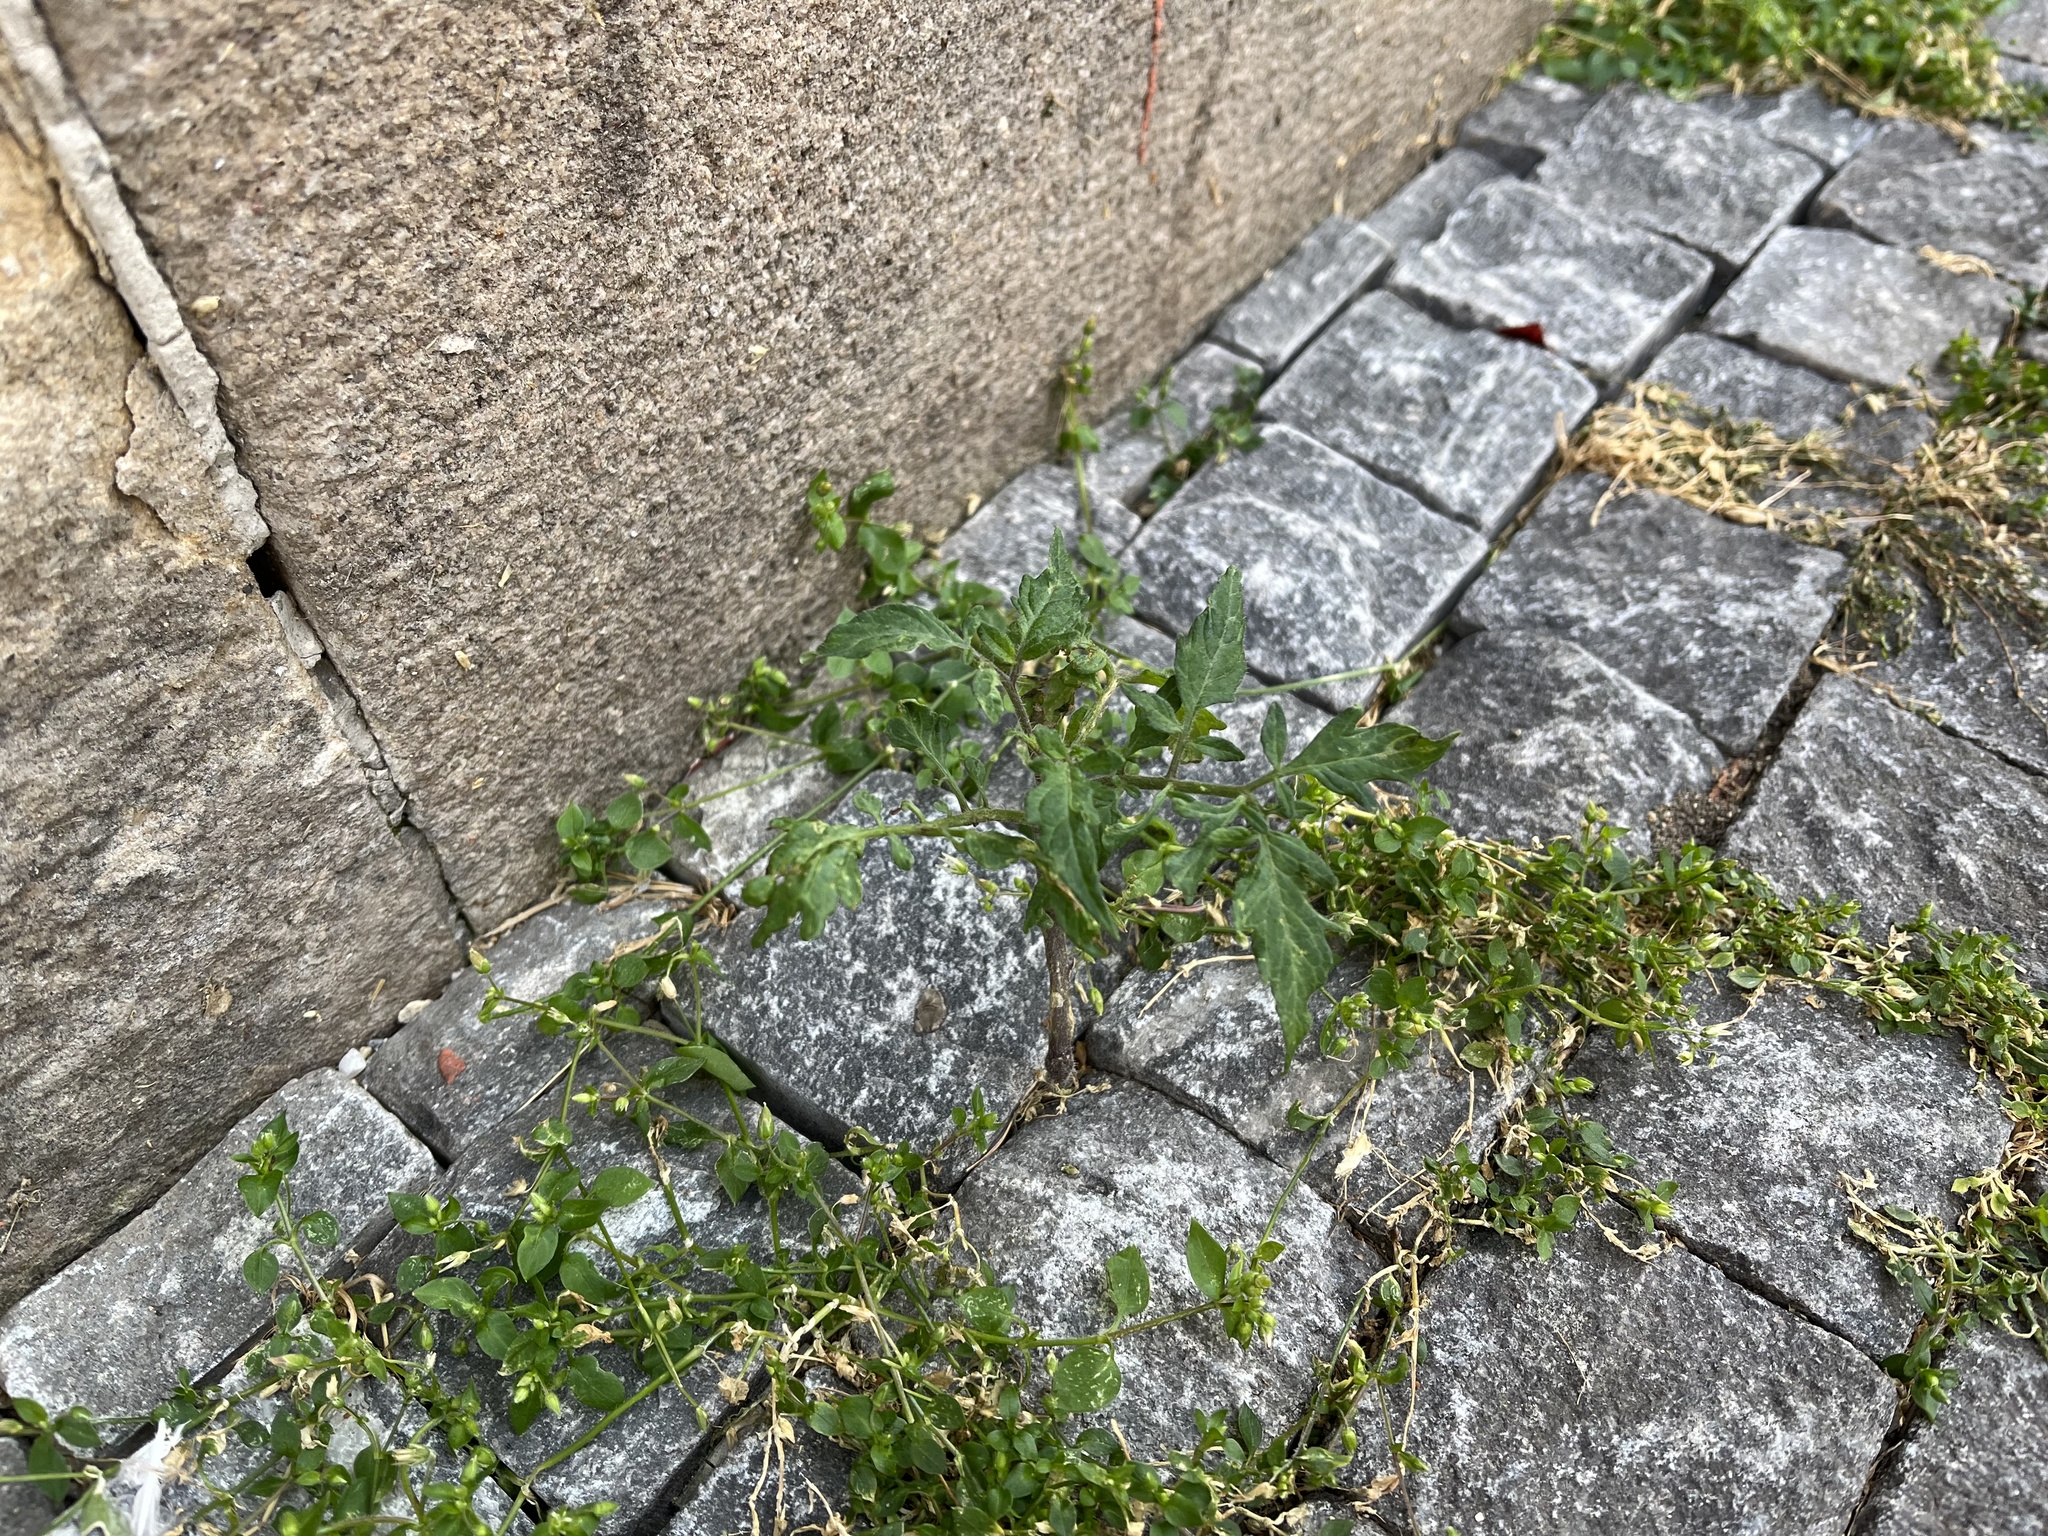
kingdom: Plantae
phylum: Tracheophyta
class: Magnoliopsida
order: Solanales
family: Solanaceae
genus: Solanum
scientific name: Solanum lycopersicum
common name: Garden tomato
